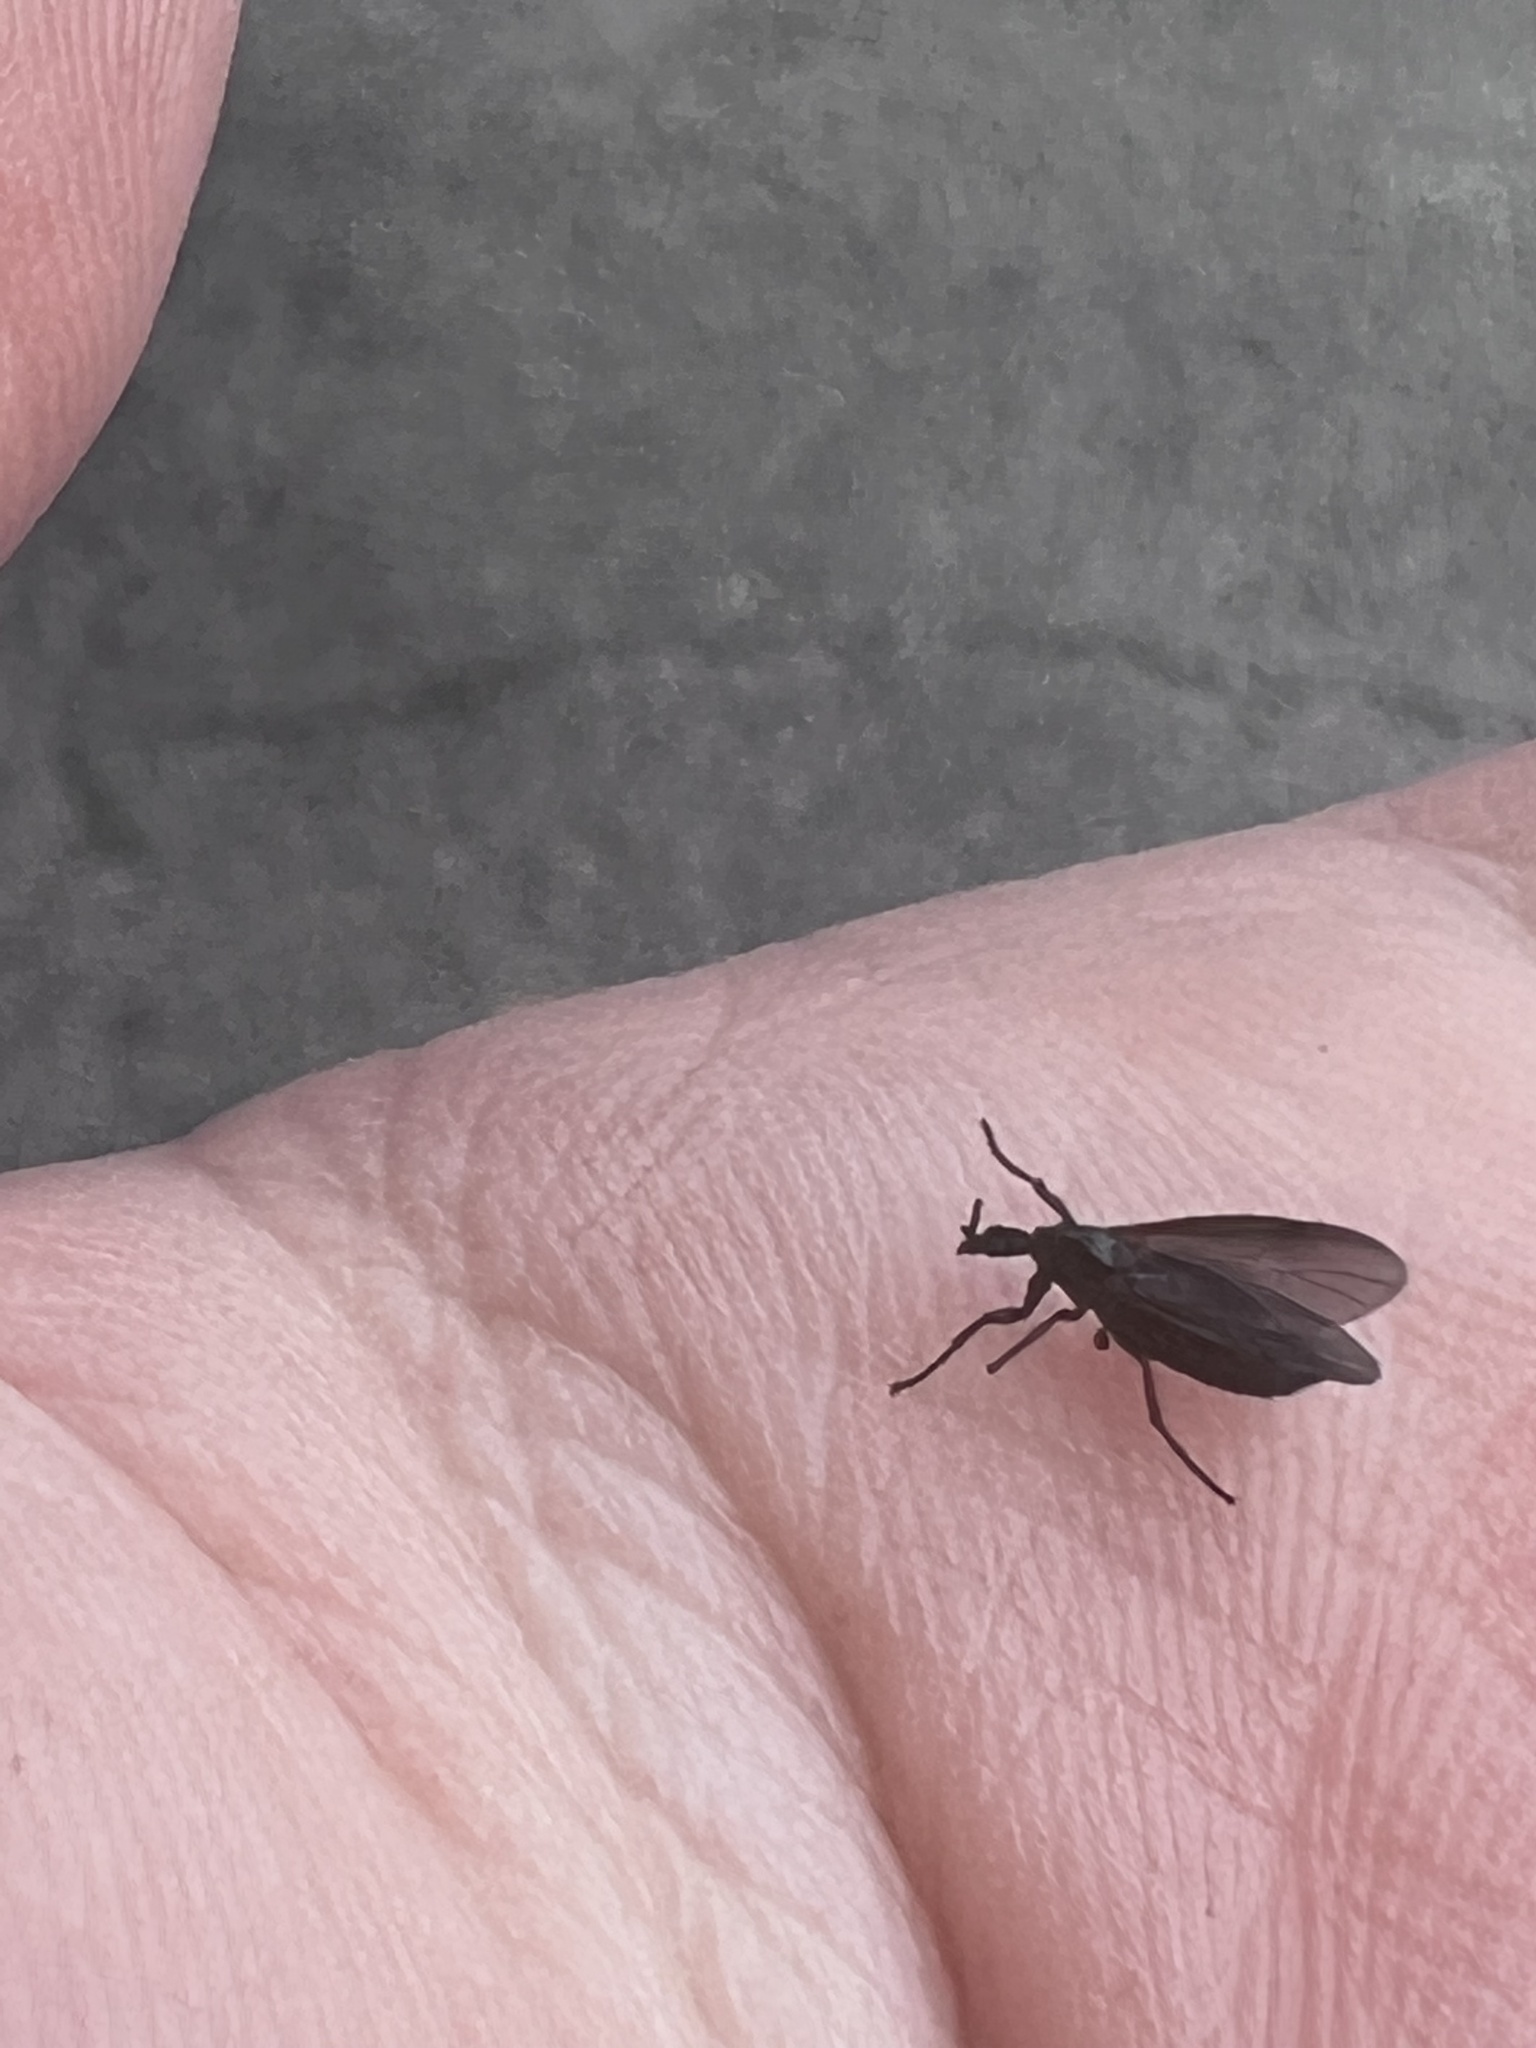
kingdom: Animalia
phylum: Arthropoda
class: Insecta
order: Diptera
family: Bibionidae
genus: Dilophus
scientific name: Dilophus orbatus
